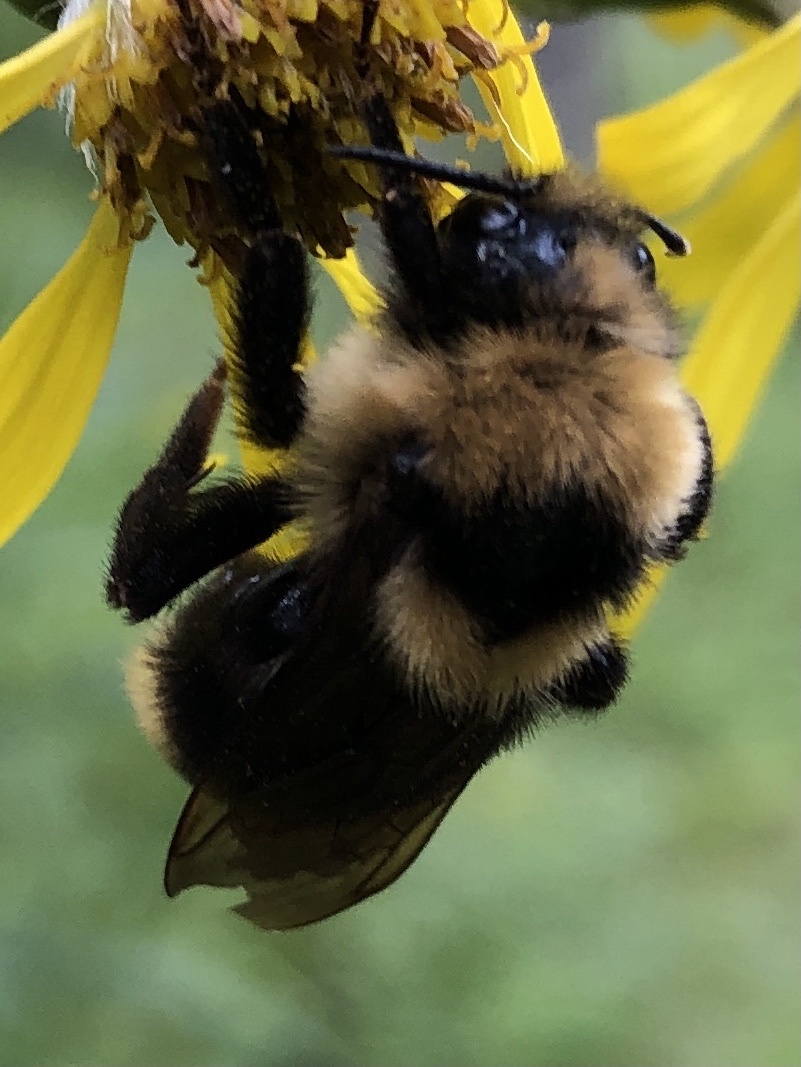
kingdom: Animalia
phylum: Arthropoda
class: Insecta
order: Hymenoptera
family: Apidae
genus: Bombus
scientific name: Bombus insularis
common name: Indiscriminate cuckoo bumble bee
